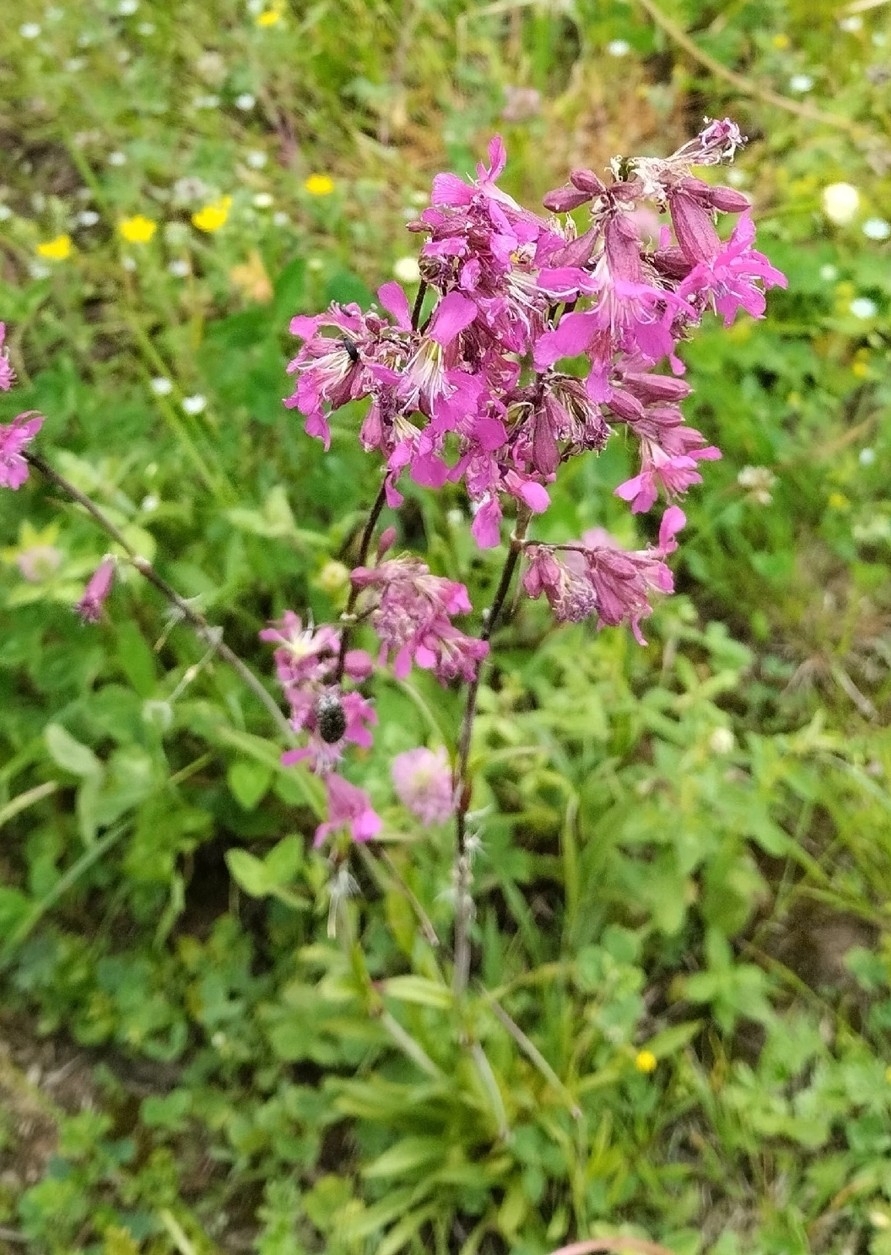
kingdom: Plantae
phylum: Tracheophyta
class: Magnoliopsida
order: Caryophyllales
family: Caryophyllaceae
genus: Viscaria
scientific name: Viscaria vulgaris
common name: Clammy campion
